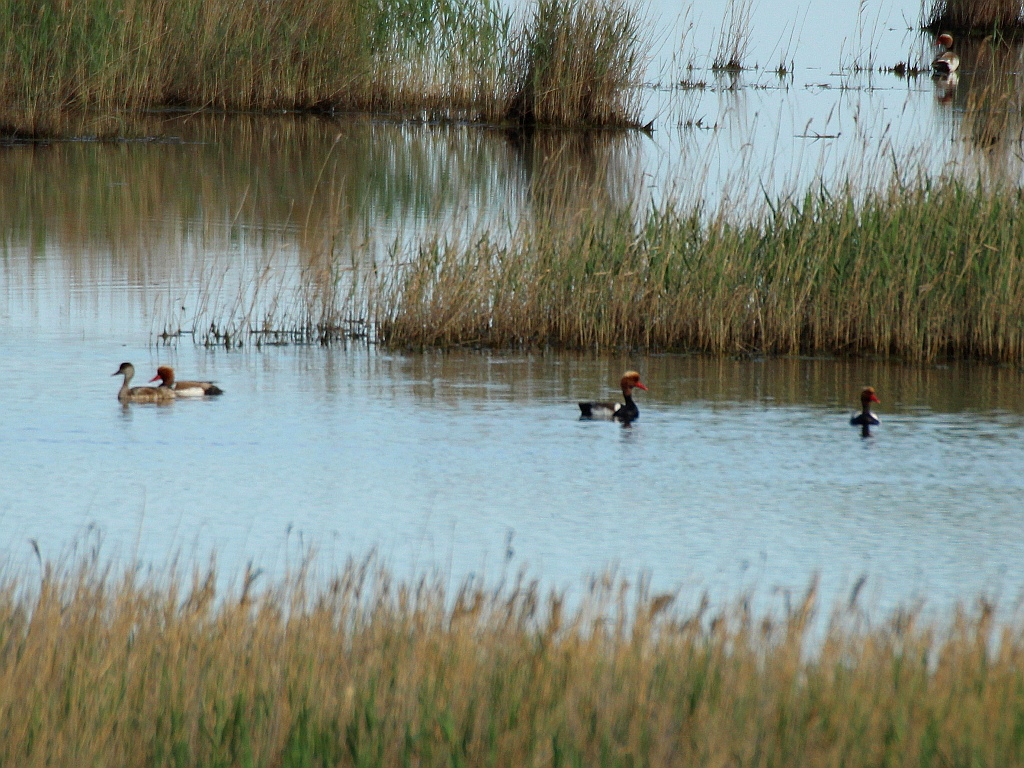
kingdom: Animalia
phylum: Chordata
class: Aves
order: Anseriformes
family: Anatidae
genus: Netta
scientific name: Netta rufina
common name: Red-crested pochard
